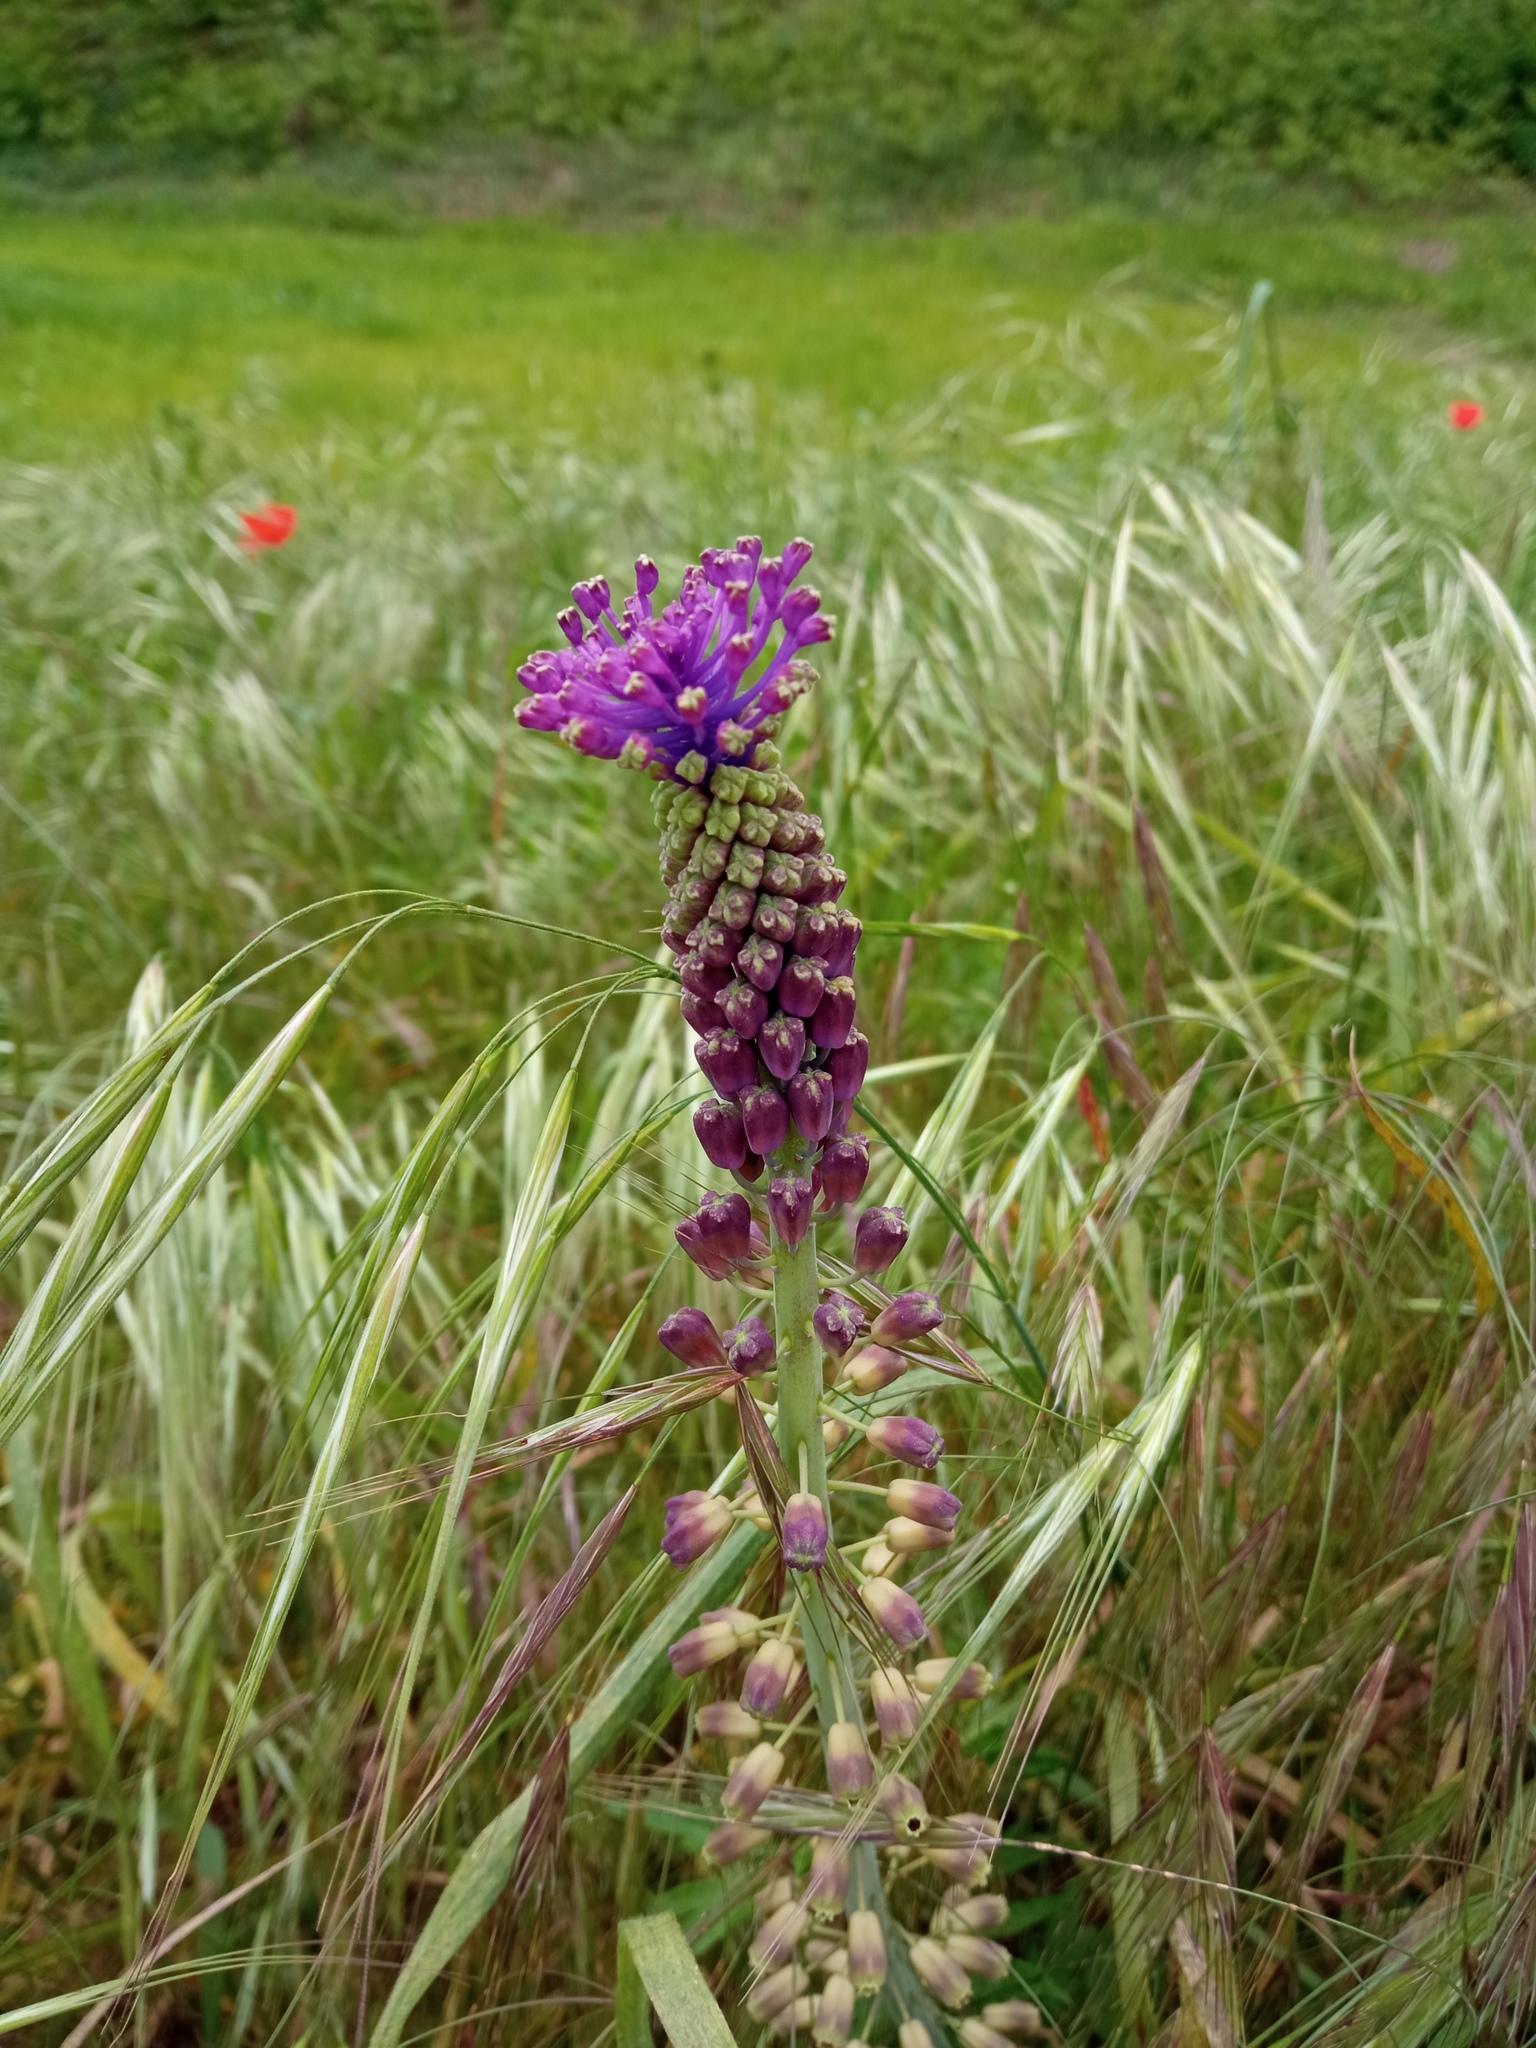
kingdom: Plantae
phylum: Tracheophyta
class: Liliopsida
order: Asparagales
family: Asparagaceae
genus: Muscari
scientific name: Muscari comosum
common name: Tassel hyacinth
